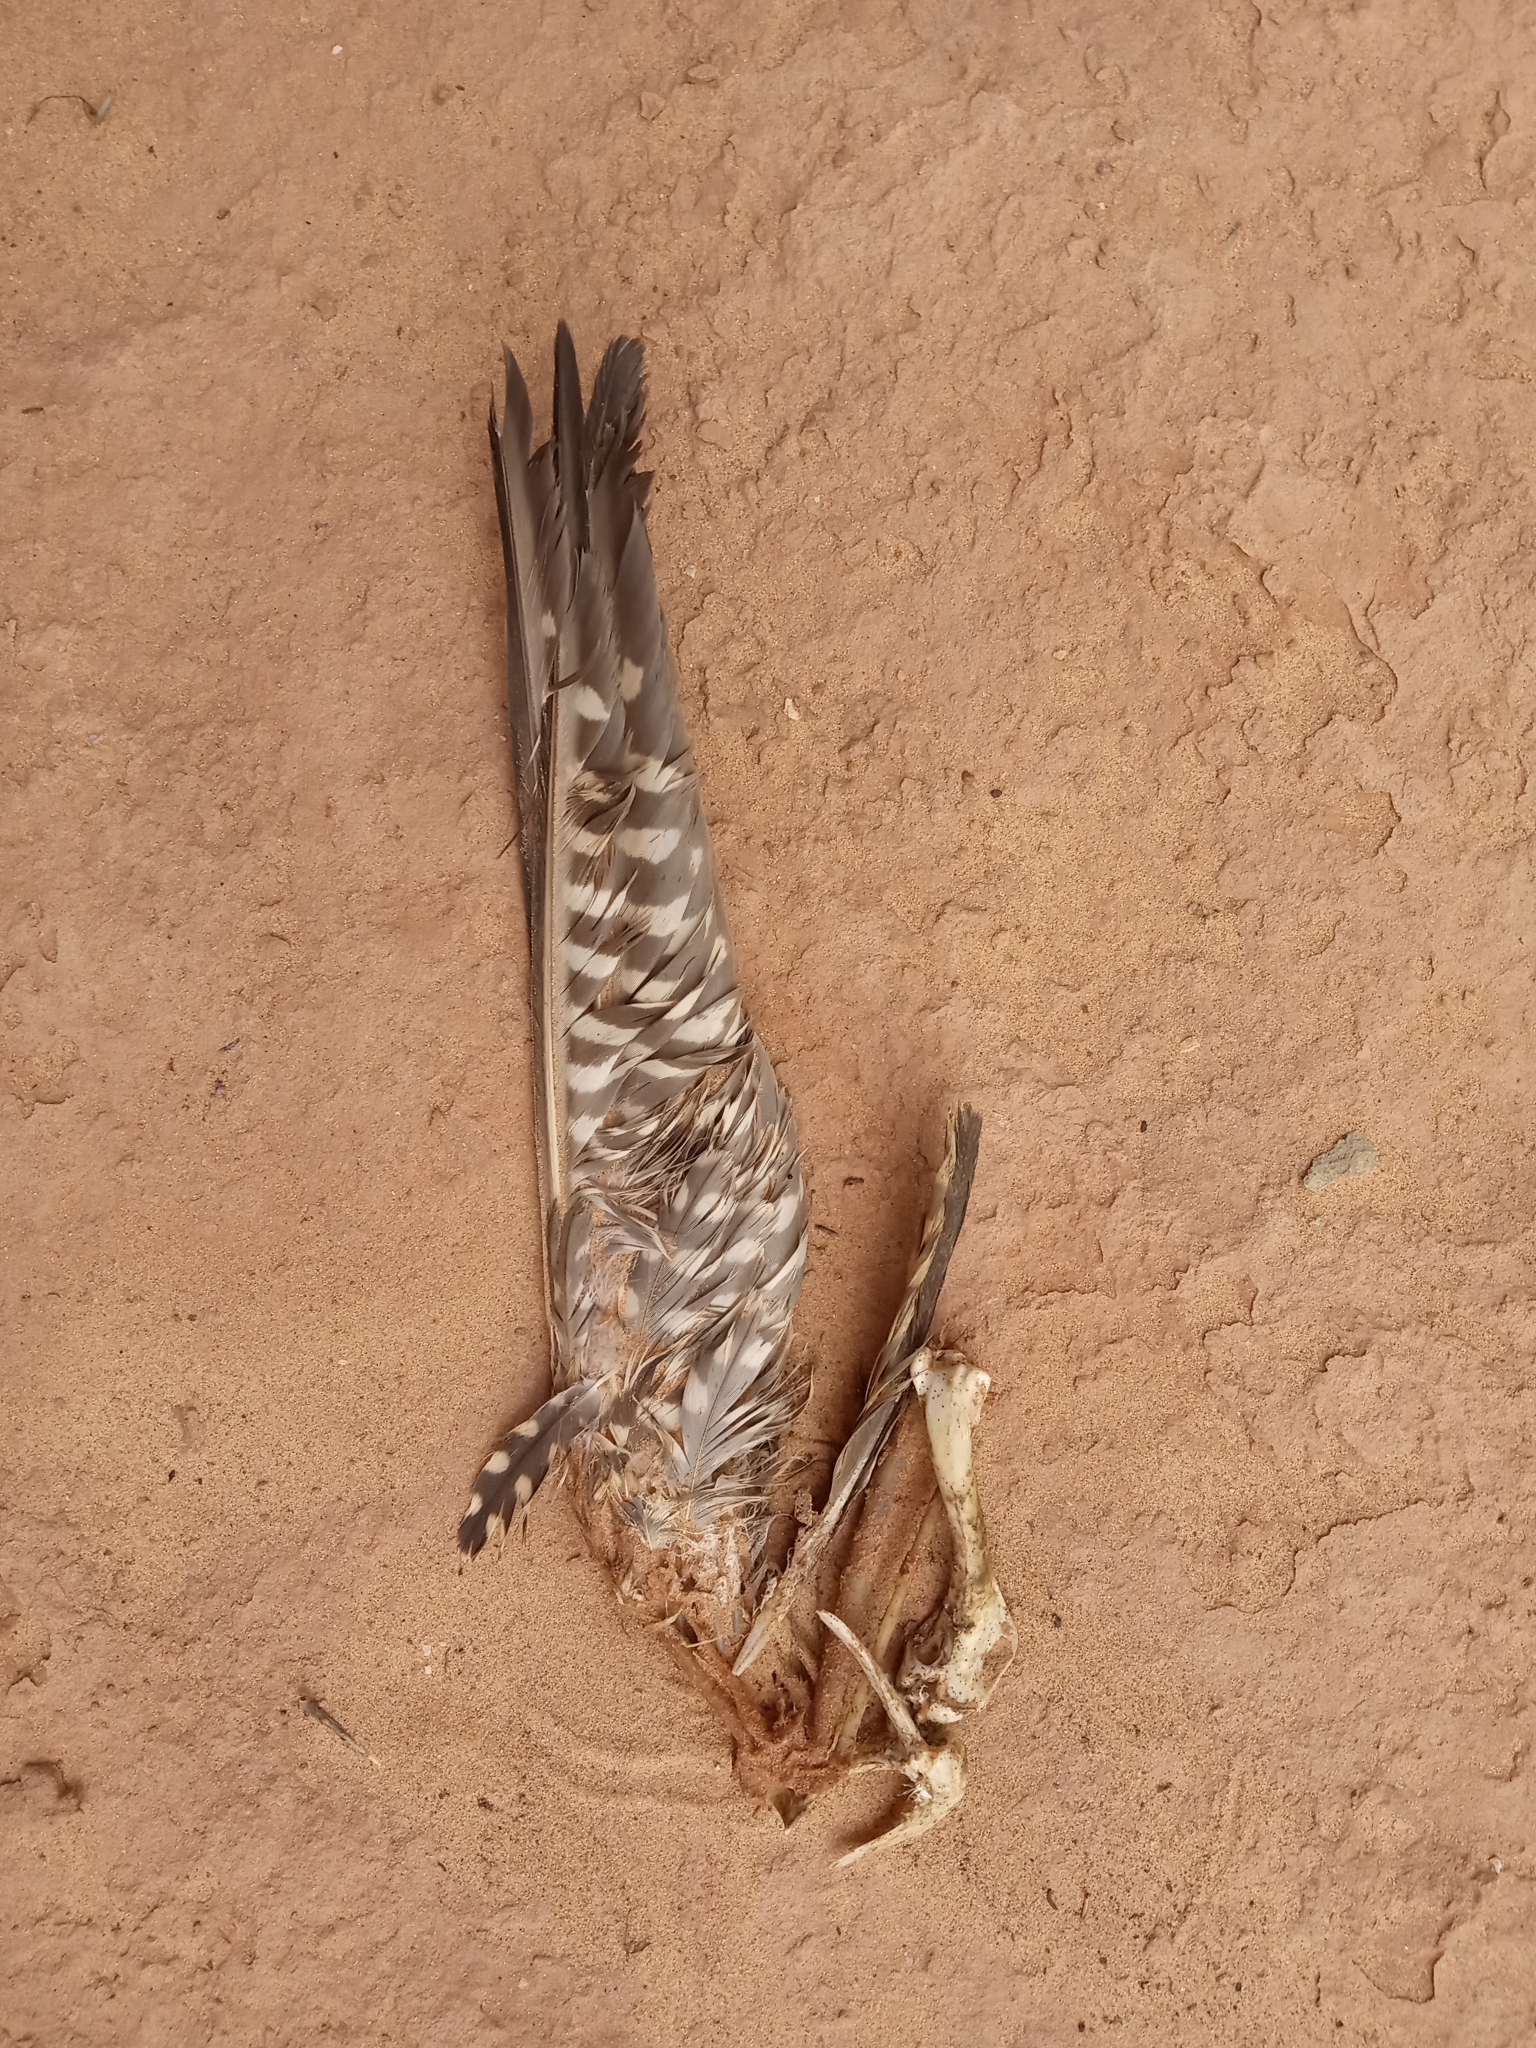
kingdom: Animalia
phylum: Chordata
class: Aves
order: Falconiformes
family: Falconidae
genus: Falco
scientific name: Falco peregrinus
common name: Peregrine falcon
